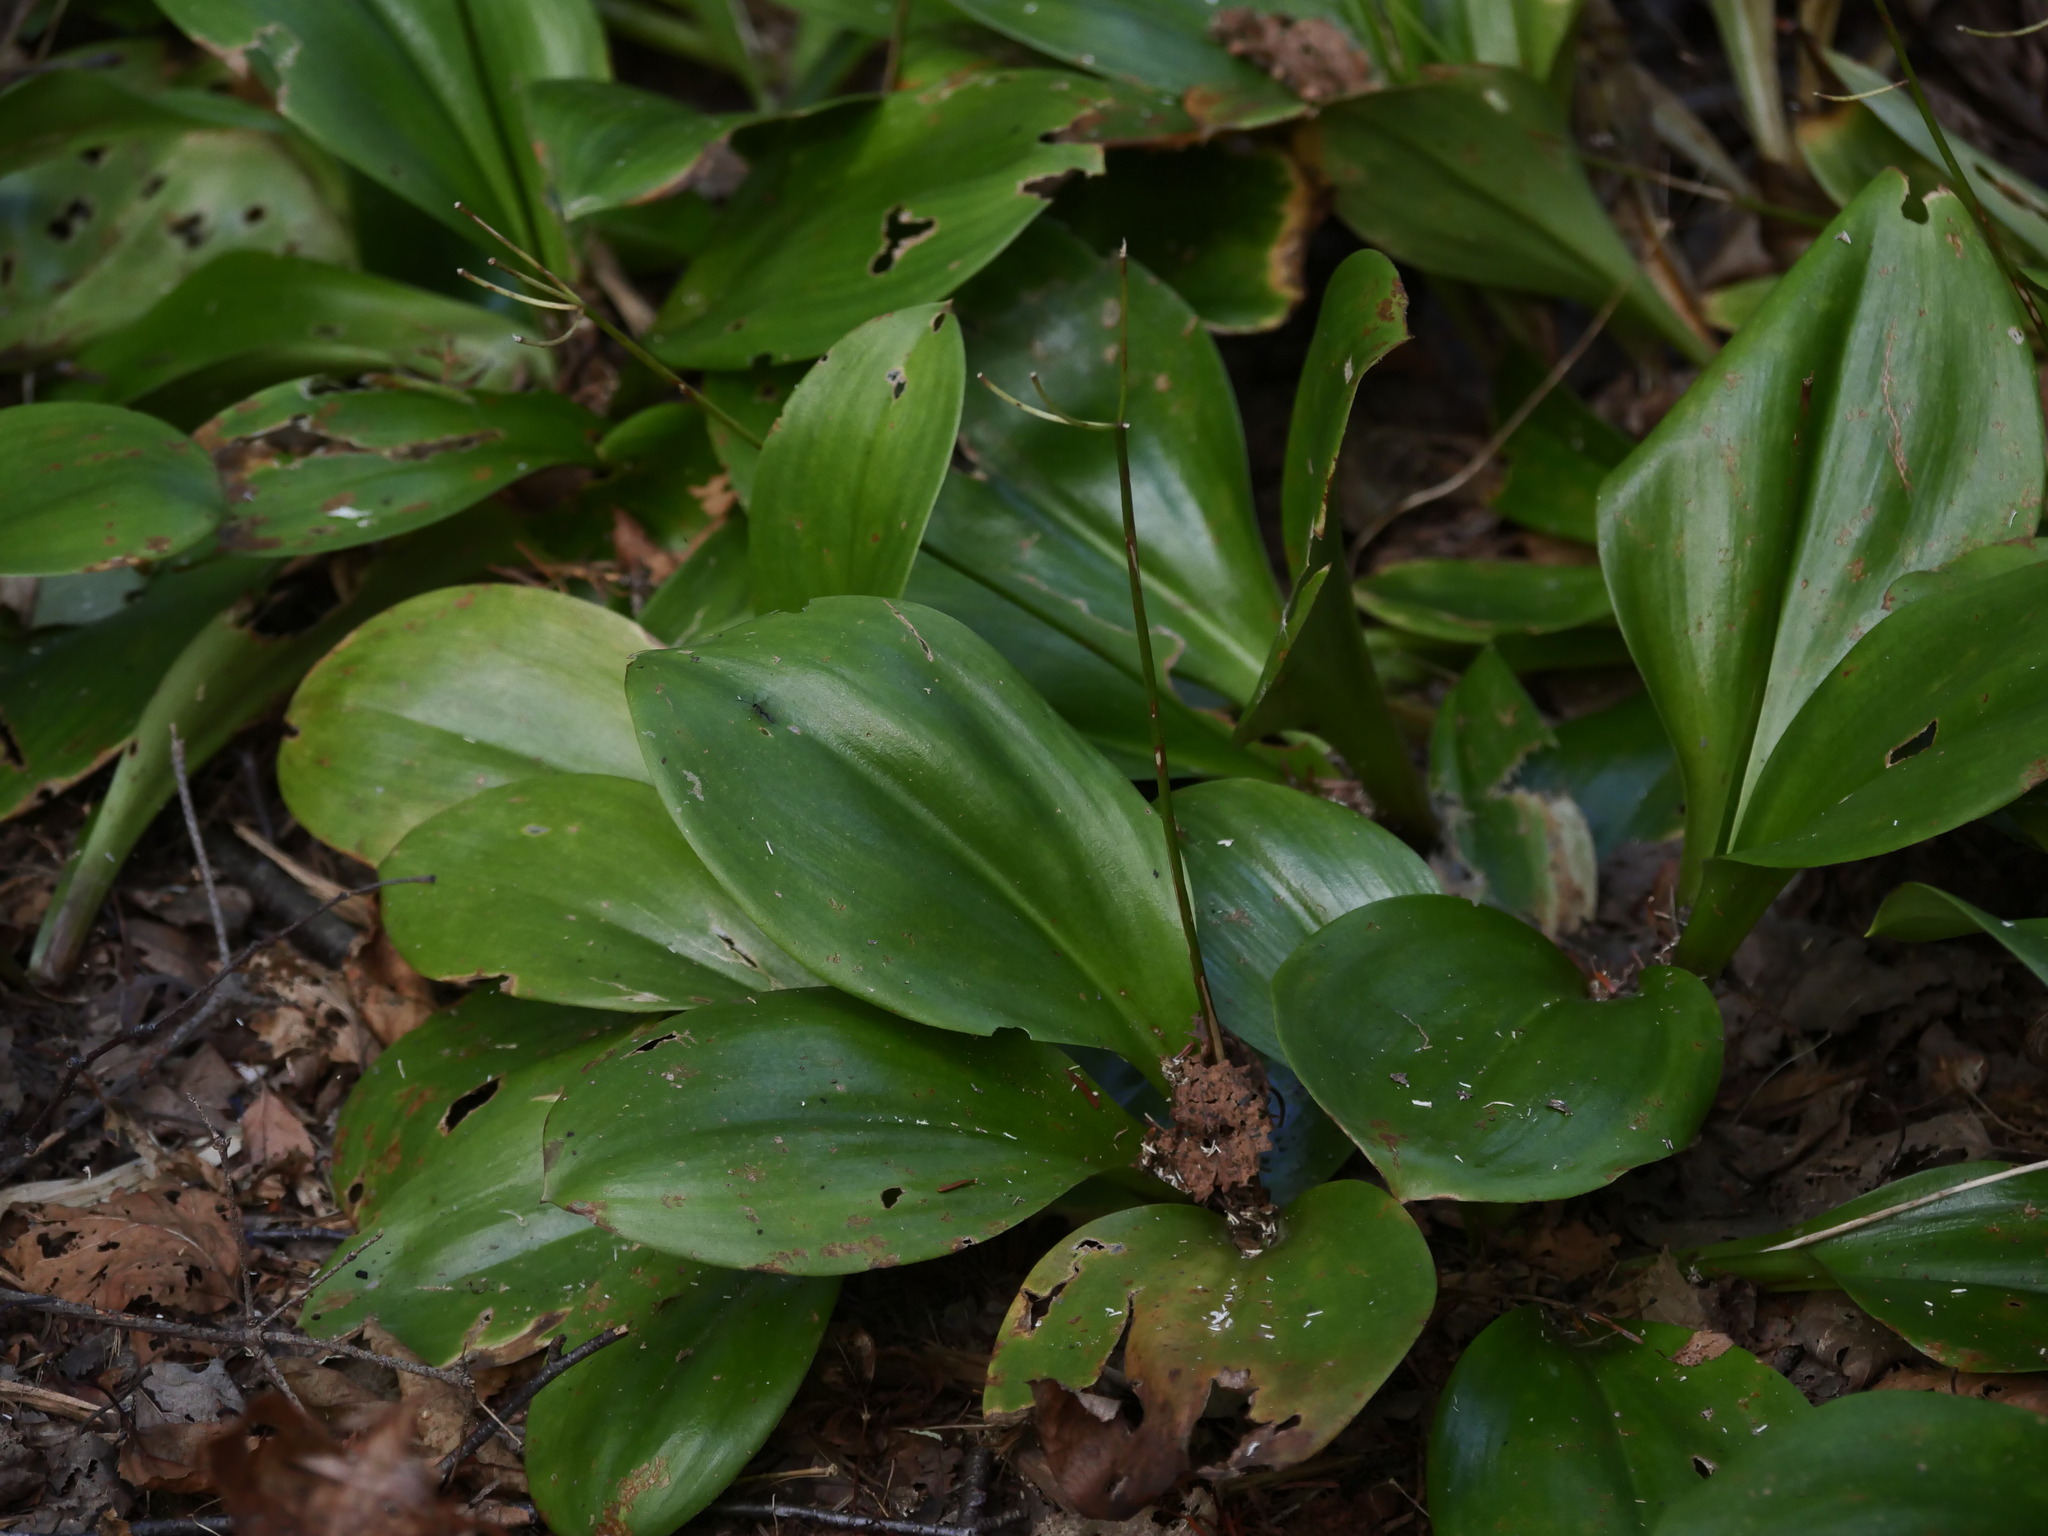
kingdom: Plantae
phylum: Tracheophyta
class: Liliopsida
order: Liliales
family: Liliaceae
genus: Clintonia
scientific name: Clintonia borealis
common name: Yellow clintonia
